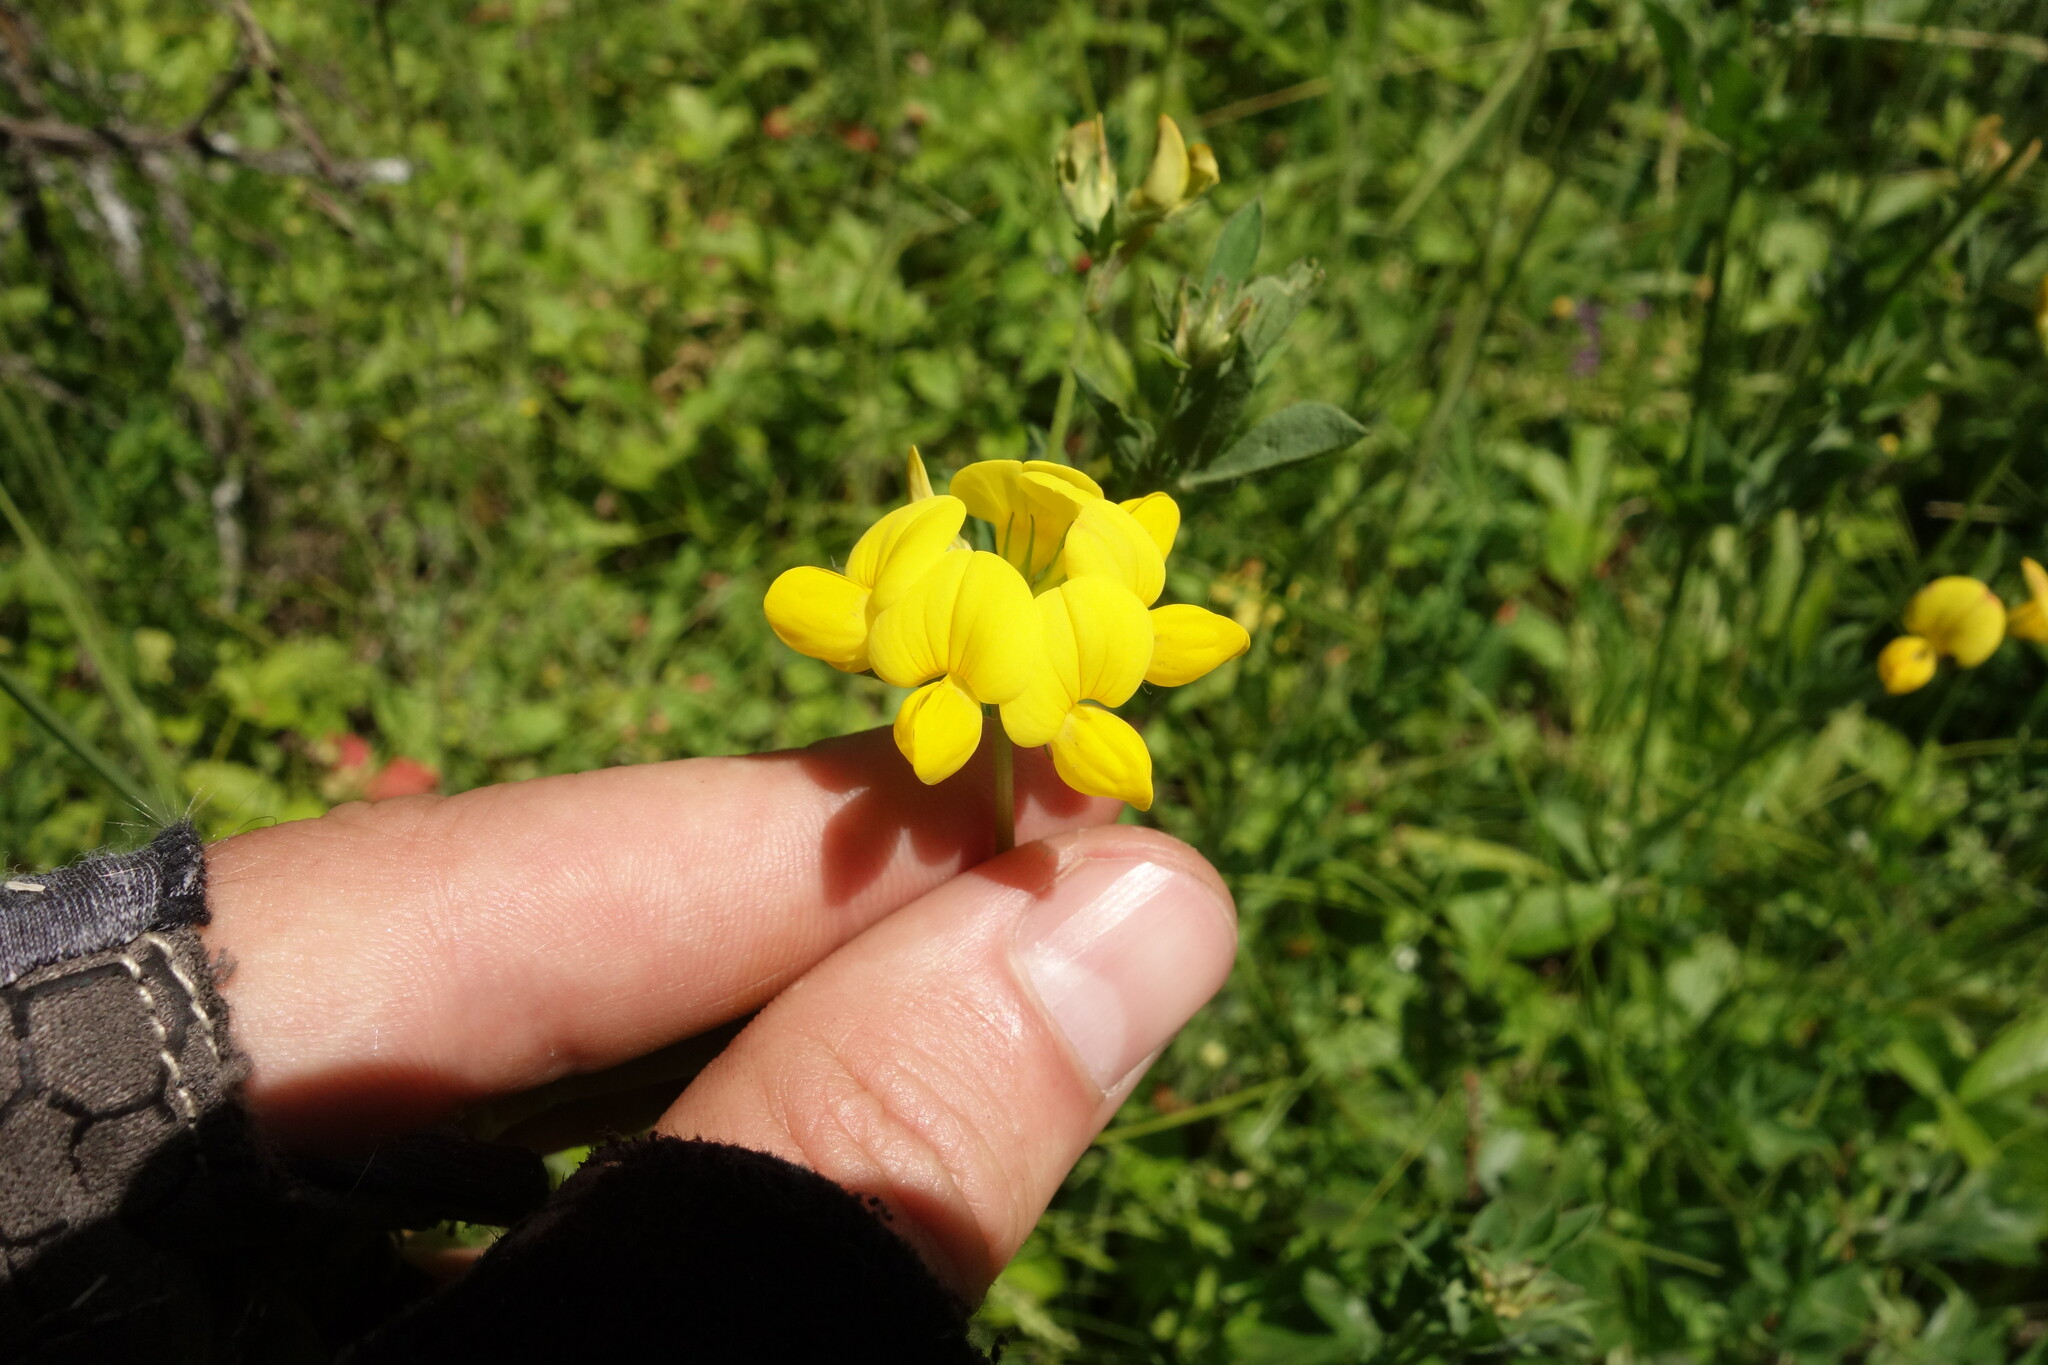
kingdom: Plantae
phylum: Tracheophyta
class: Magnoliopsida
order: Fabales
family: Fabaceae
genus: Lotus
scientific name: Lotus corniculatus
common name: Common bird's-foot-trefoil
